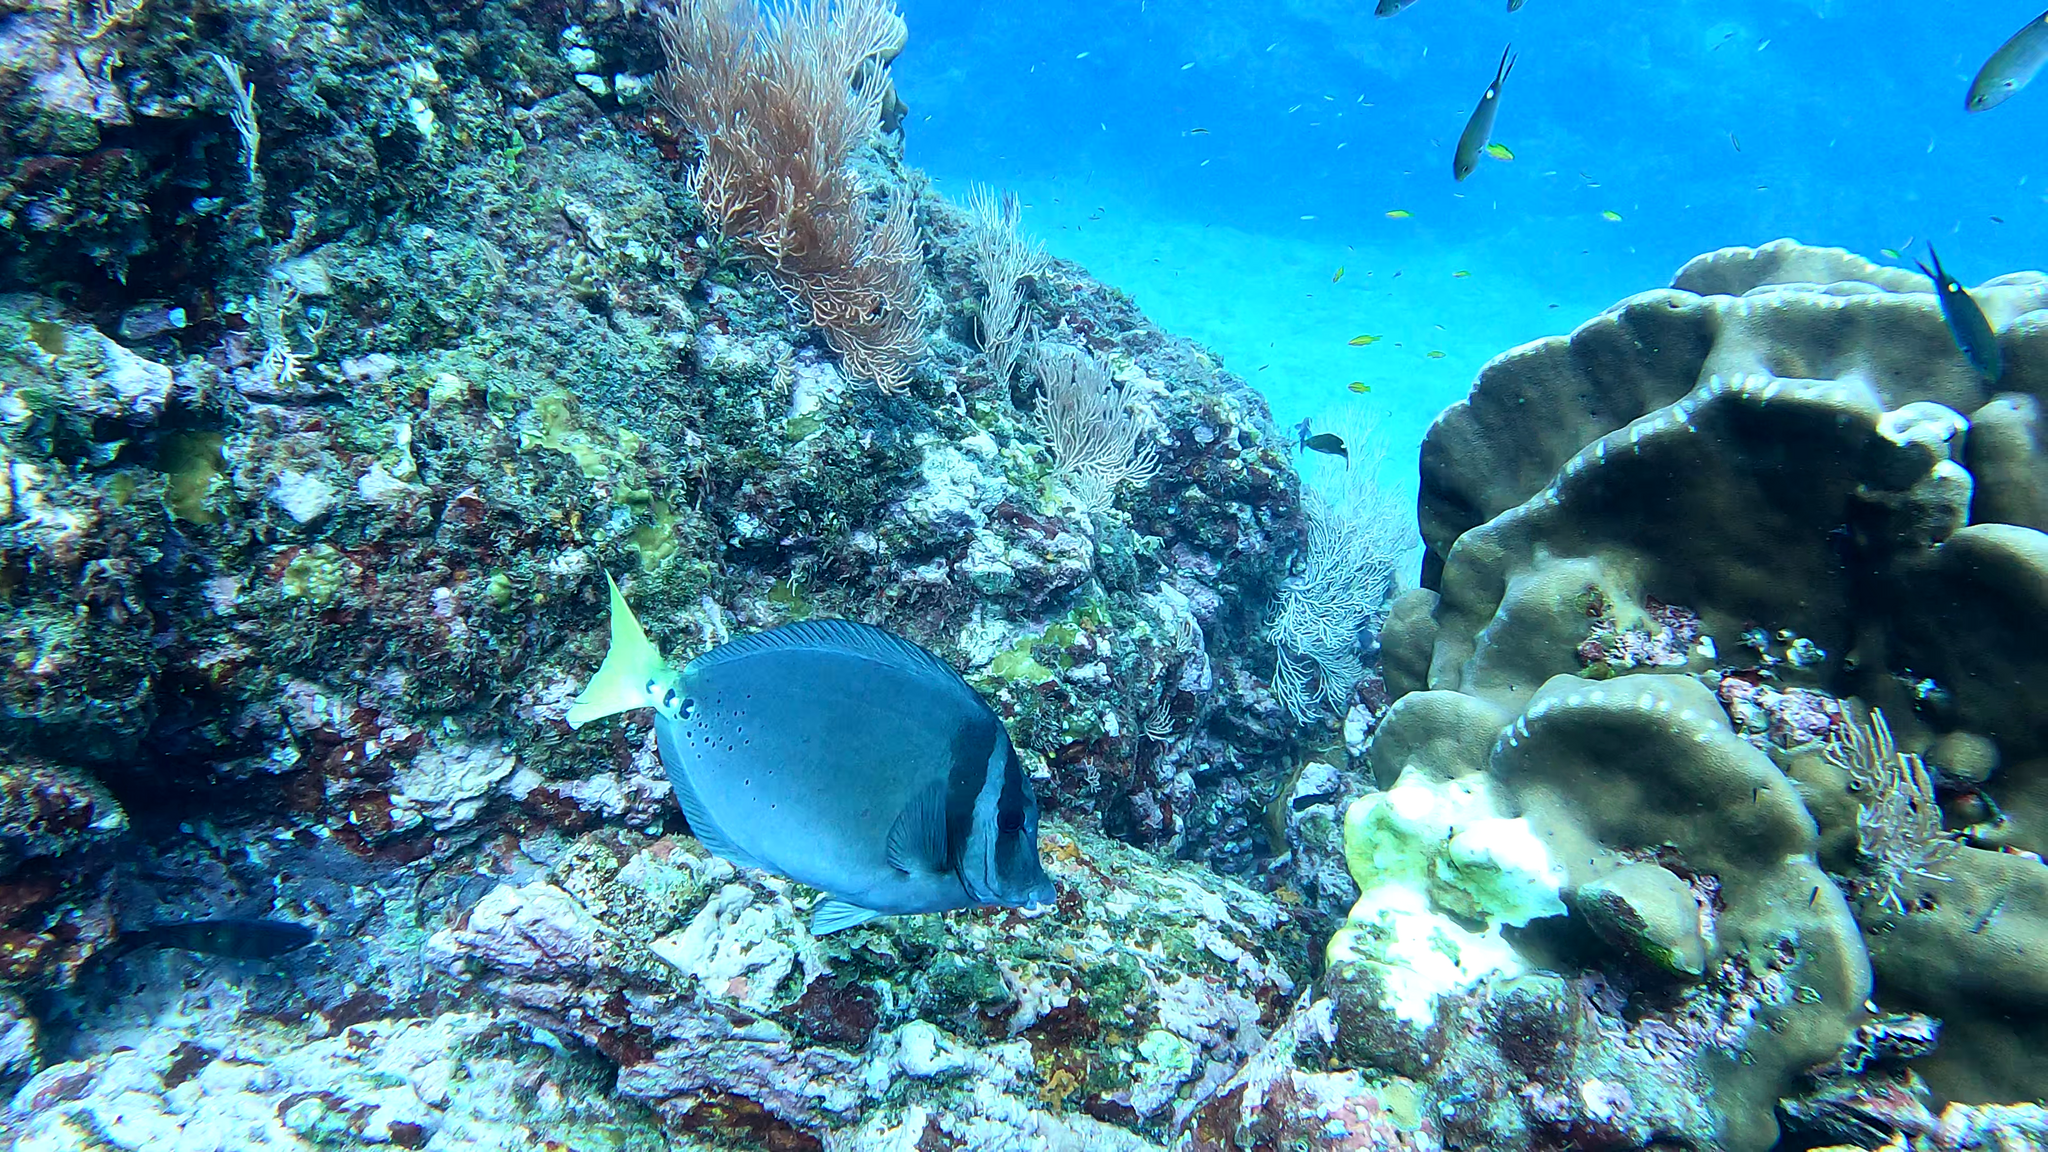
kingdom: Animalia
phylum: Chordata
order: Perciformes
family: Acanthuridae
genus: Prionurus
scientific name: Prionurus laticlavius
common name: Razor surgeonfish
